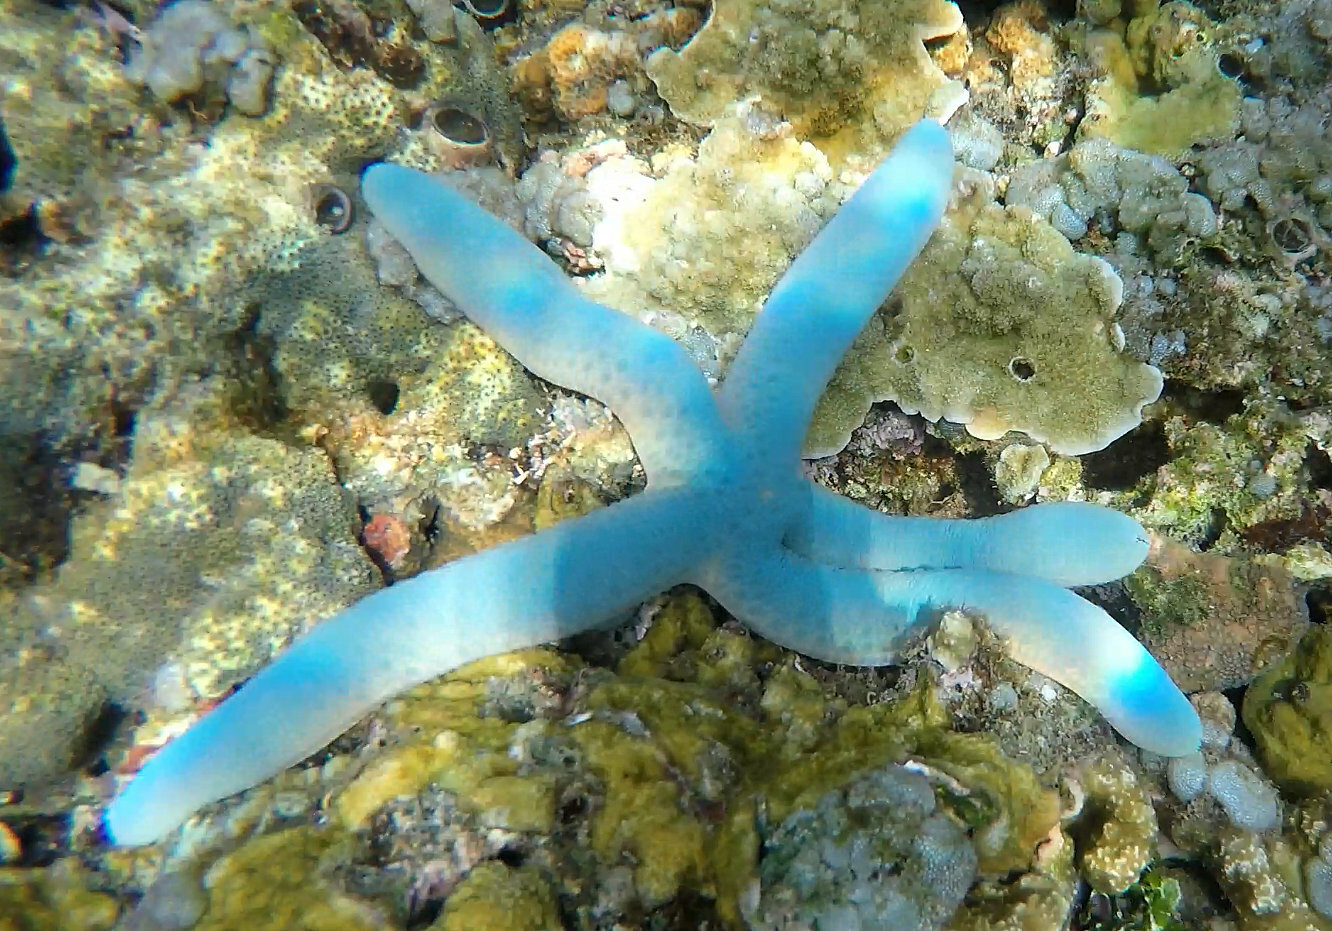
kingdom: Animalia
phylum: Echinodermata
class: Asteroidea
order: Valvatida
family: Ophidiasteridae
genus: Linckia
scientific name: Linckia laevigata
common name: Azure sea star
